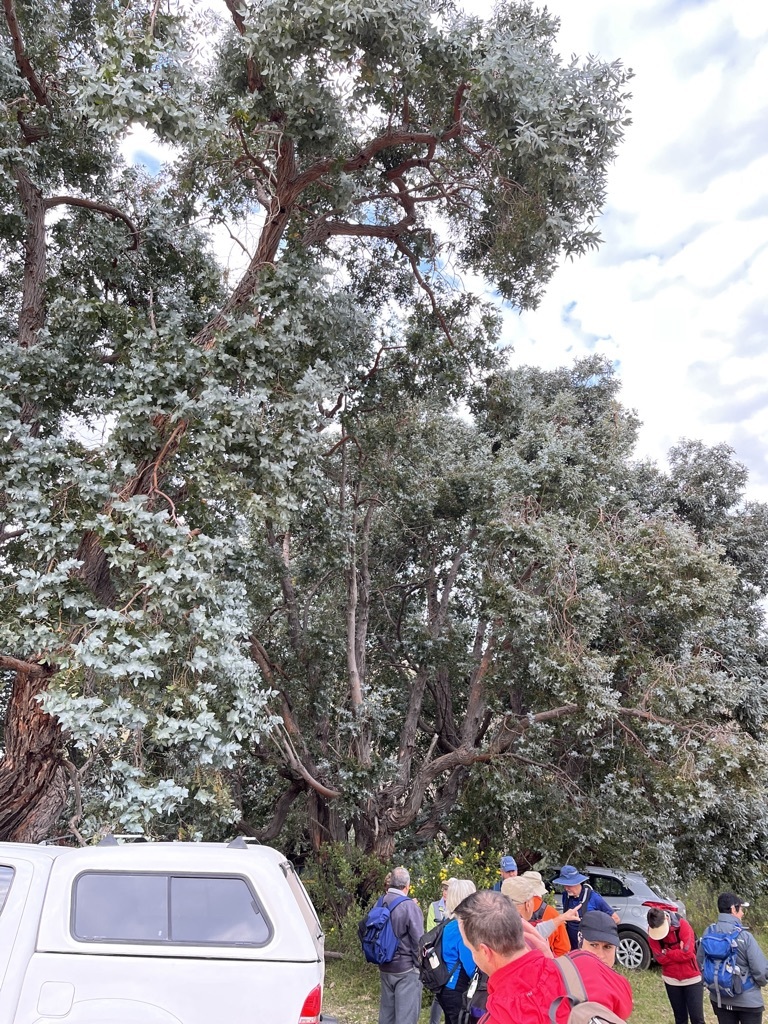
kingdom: Plantae
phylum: Tracheophyta
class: Magnoliopsida
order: Myrtales
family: Myrtaceae
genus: Eucalyptus
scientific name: Eucalyptus cinerea
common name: Argyle apple
